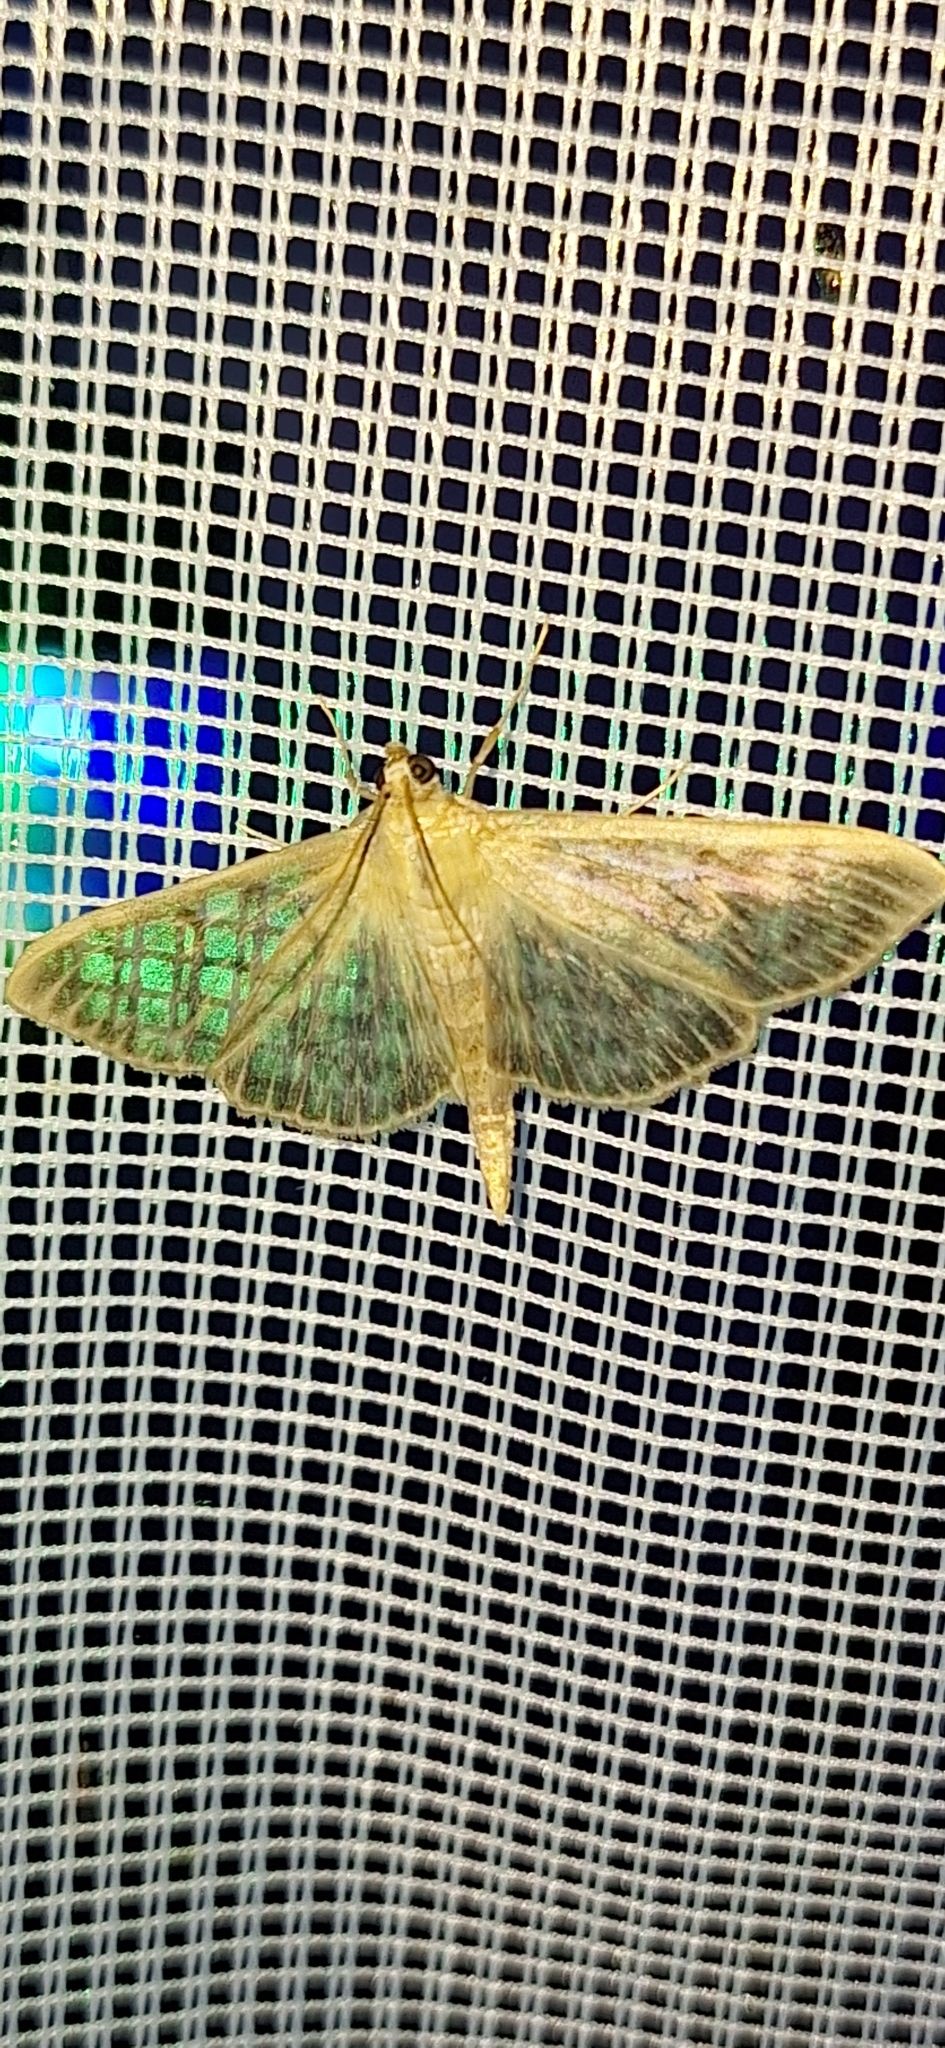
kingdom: Animalia
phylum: Arthropoda
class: Insecta
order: Lepidoptera
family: Crambidae
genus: Patania
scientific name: Patania ruralis
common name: Mother of pearl
